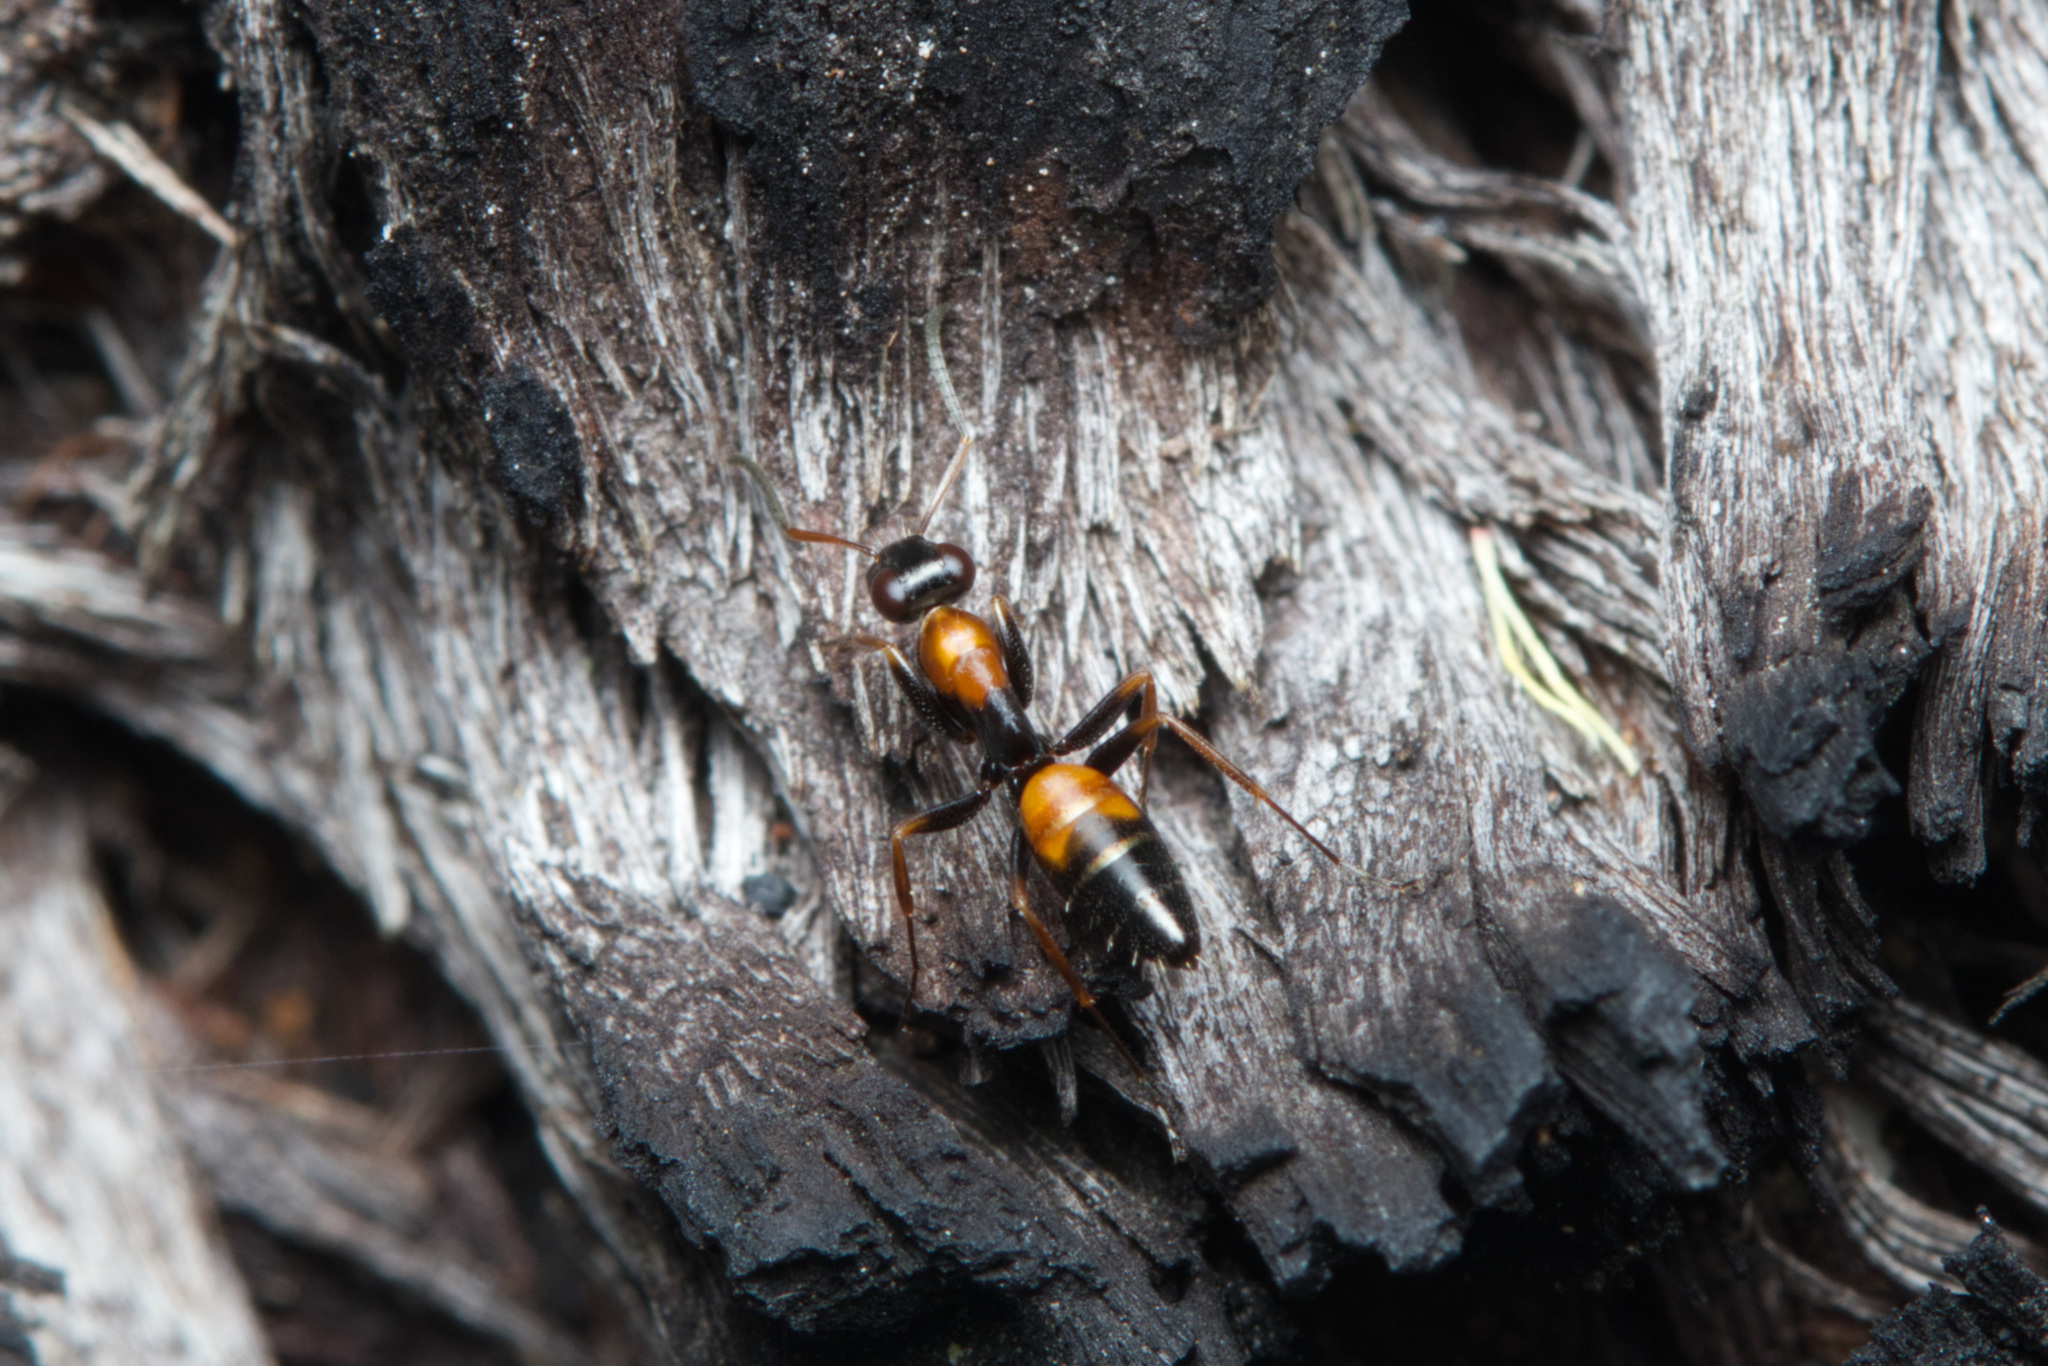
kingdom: Animalia
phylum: Arthropoda
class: Insecta
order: Hymenoptera
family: Formicidae
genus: Opisthopsis
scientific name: Opisthopsis pictus
